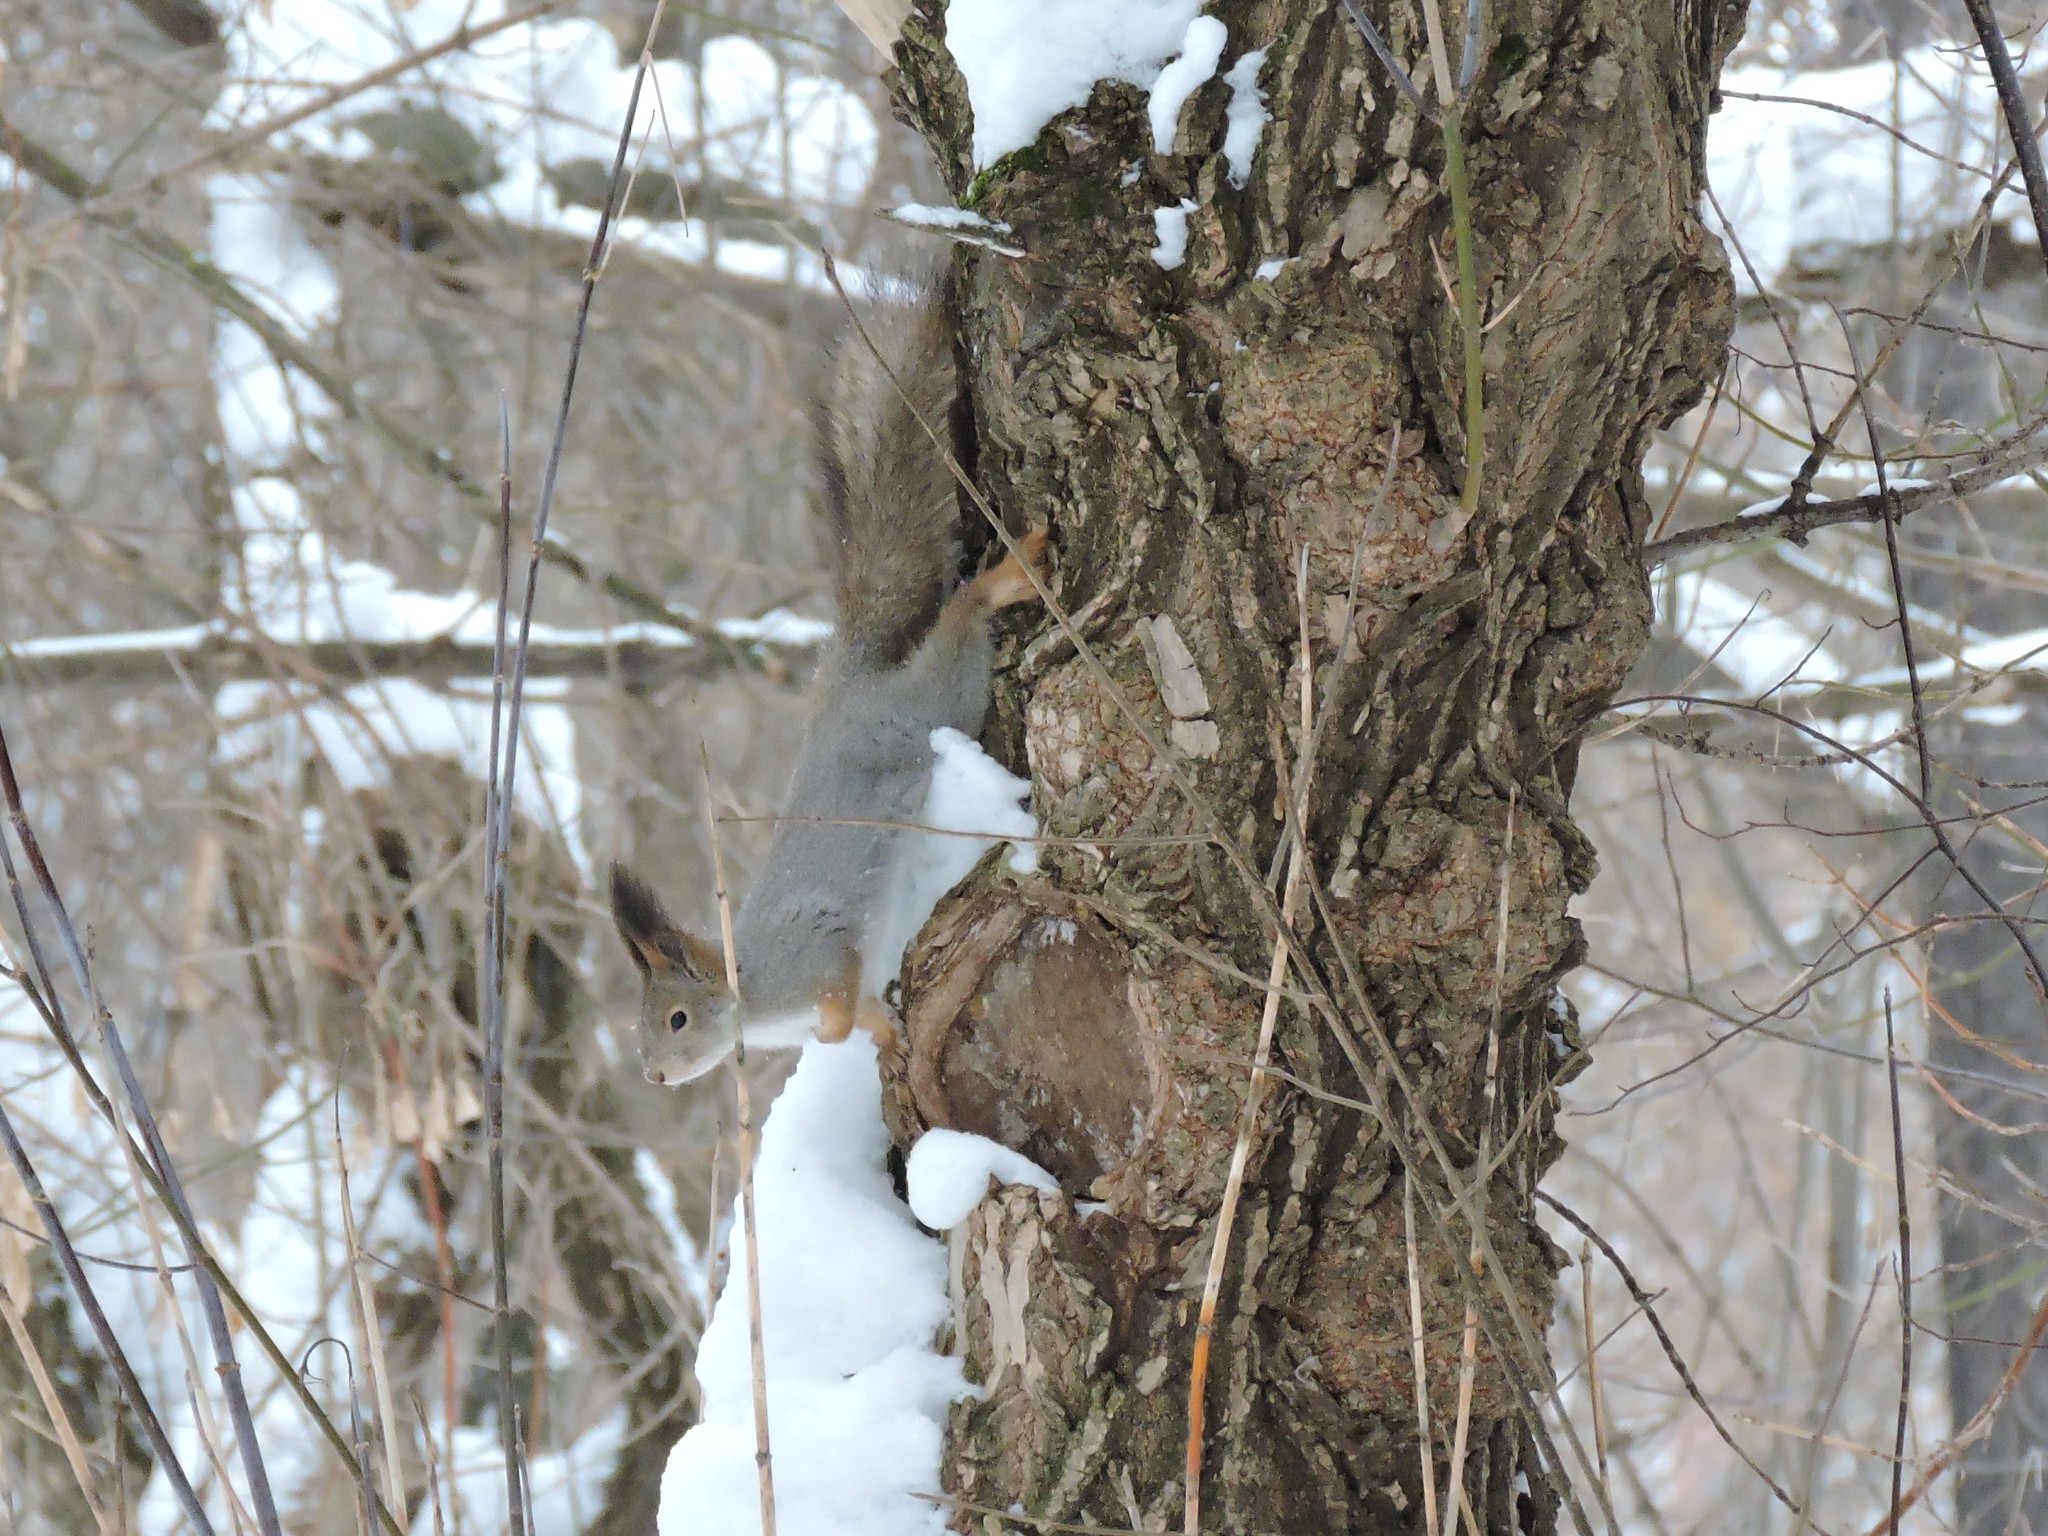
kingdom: Animalia
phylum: Chordata
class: Mammalia
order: Rodentia
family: Sciuridae
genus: Sciurus
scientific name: Sciurus vulgaris
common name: Eurasian red squirrel
